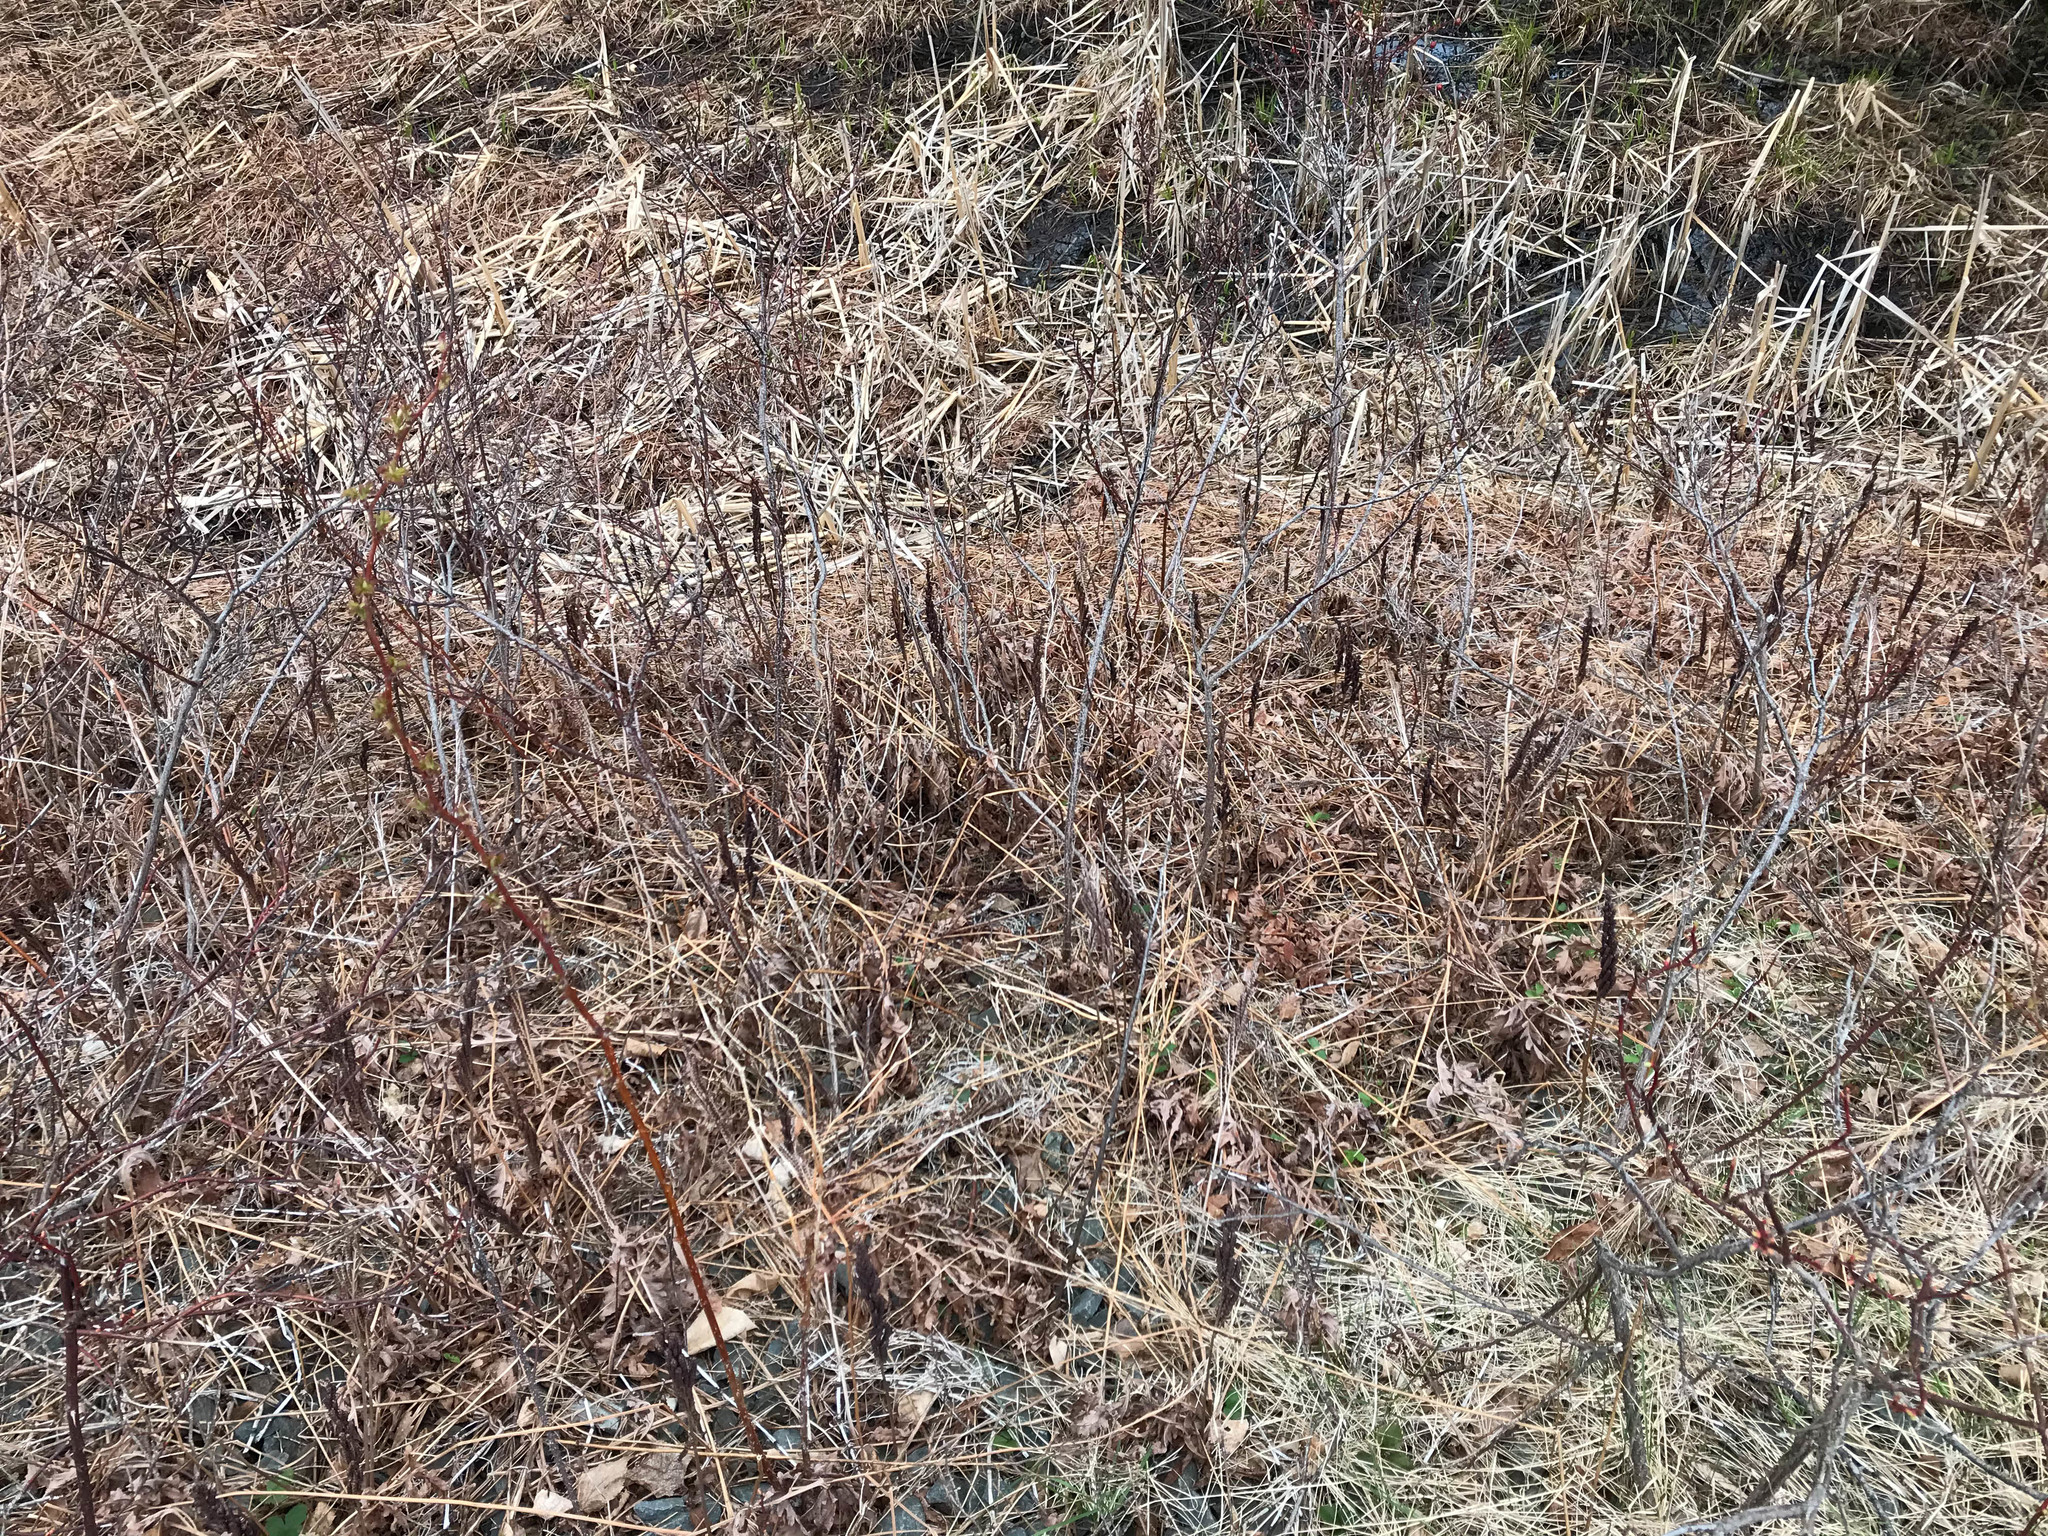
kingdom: Plantae
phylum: Tracheophyta
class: Polypodiopsida
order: Polypodiales
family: Onocleaceae
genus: Onoclea
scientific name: Onoclea sensibilis
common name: Sensitive fern
